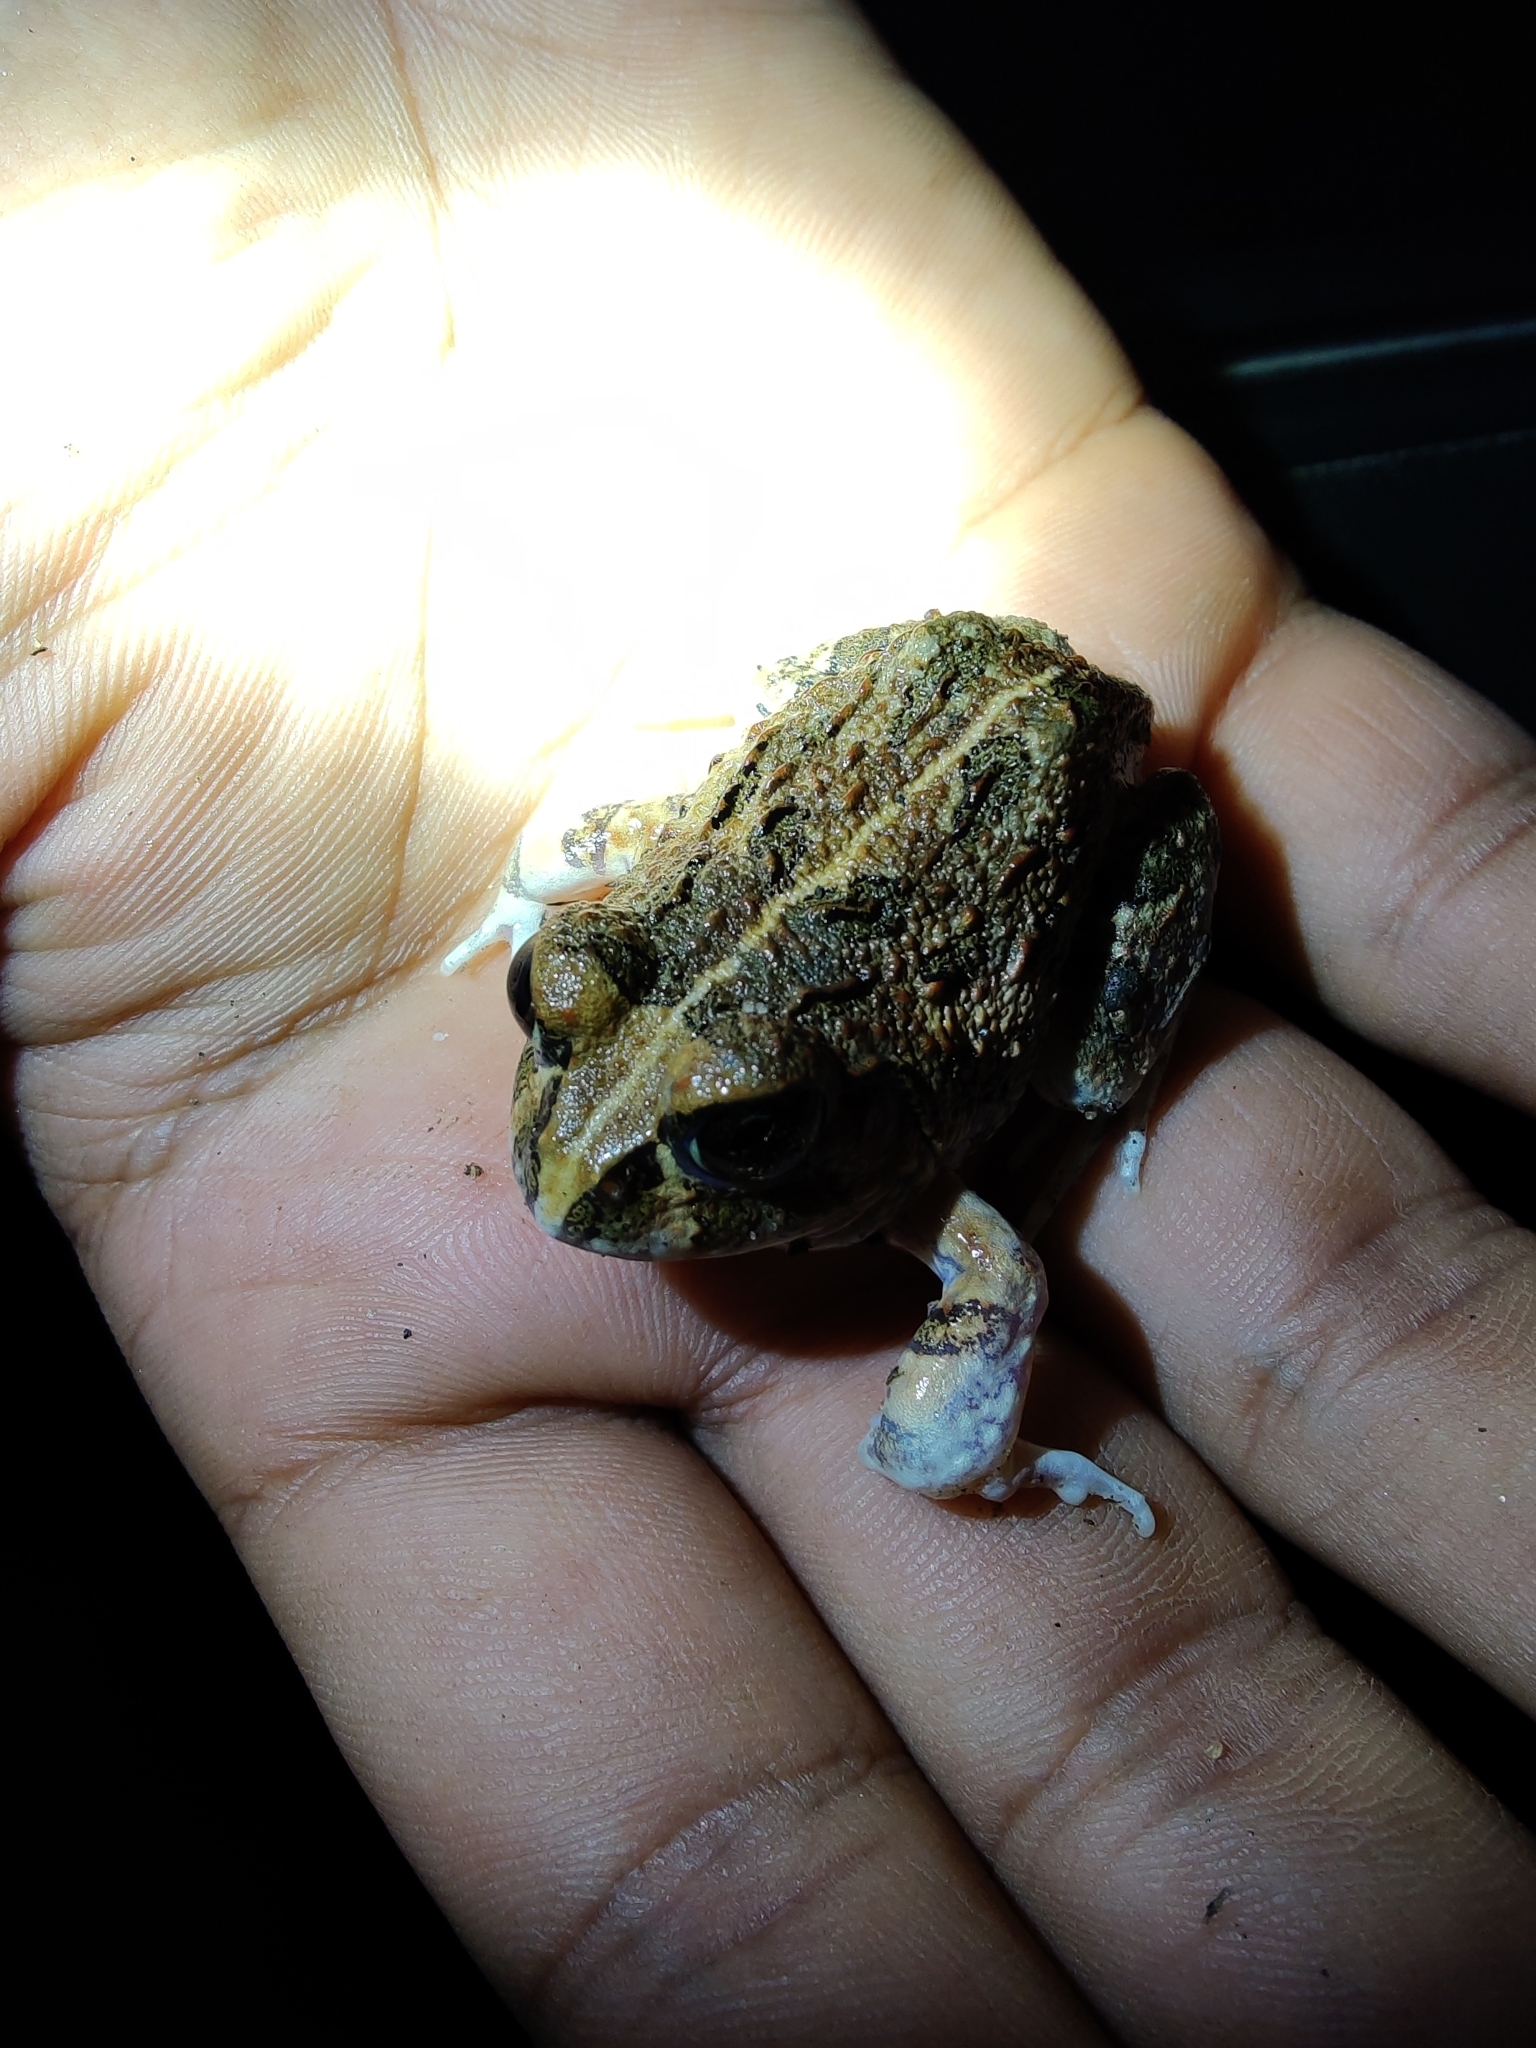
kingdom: Animalia
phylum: Chordata
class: Amphibia
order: Anura
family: Dicroglossidae
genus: Sphaerotheca
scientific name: Sphaerotheca bengaluru
